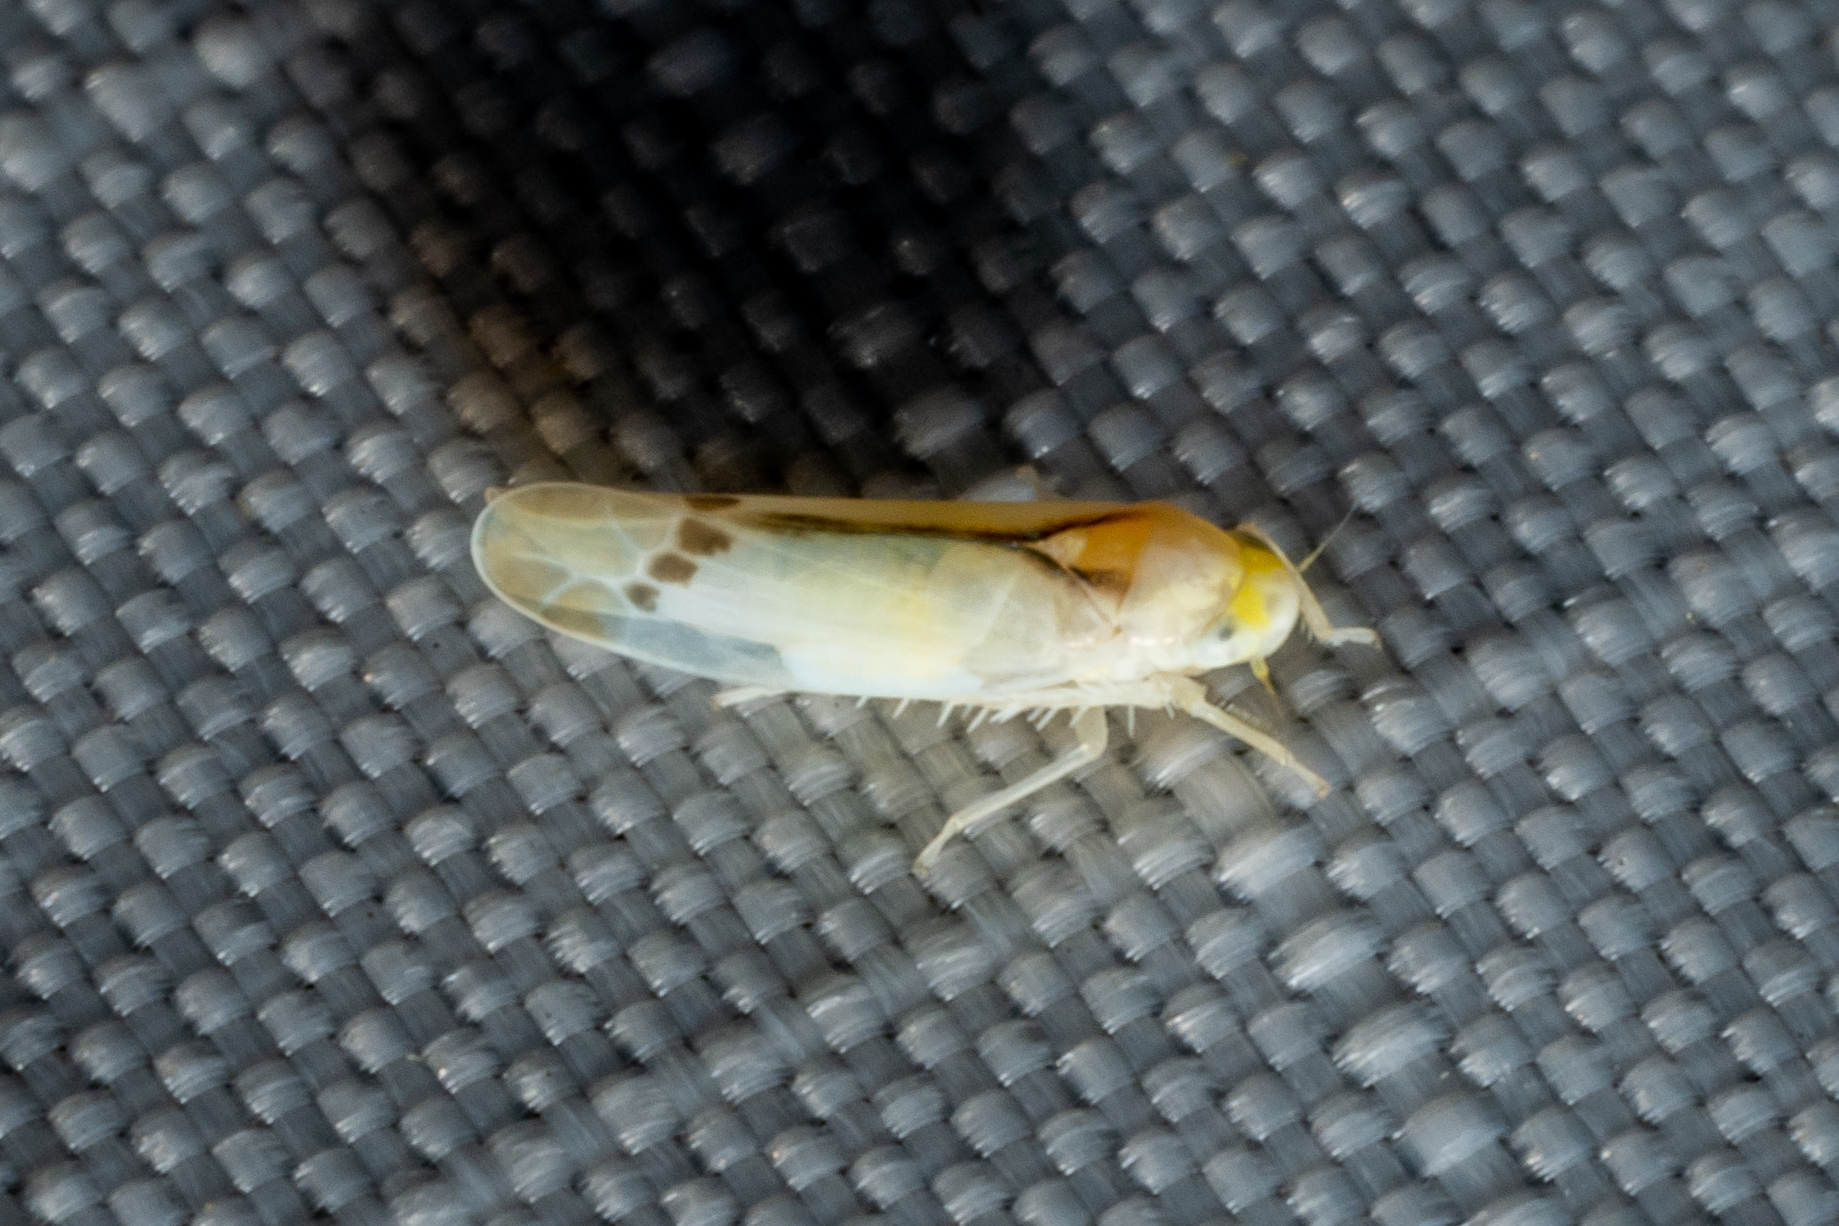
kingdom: Animalia
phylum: Arthropoda
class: Insecta
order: Hemiptera
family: Cicadellidae
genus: Ossiannilssonola
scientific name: Ossiannilssonola phryne
